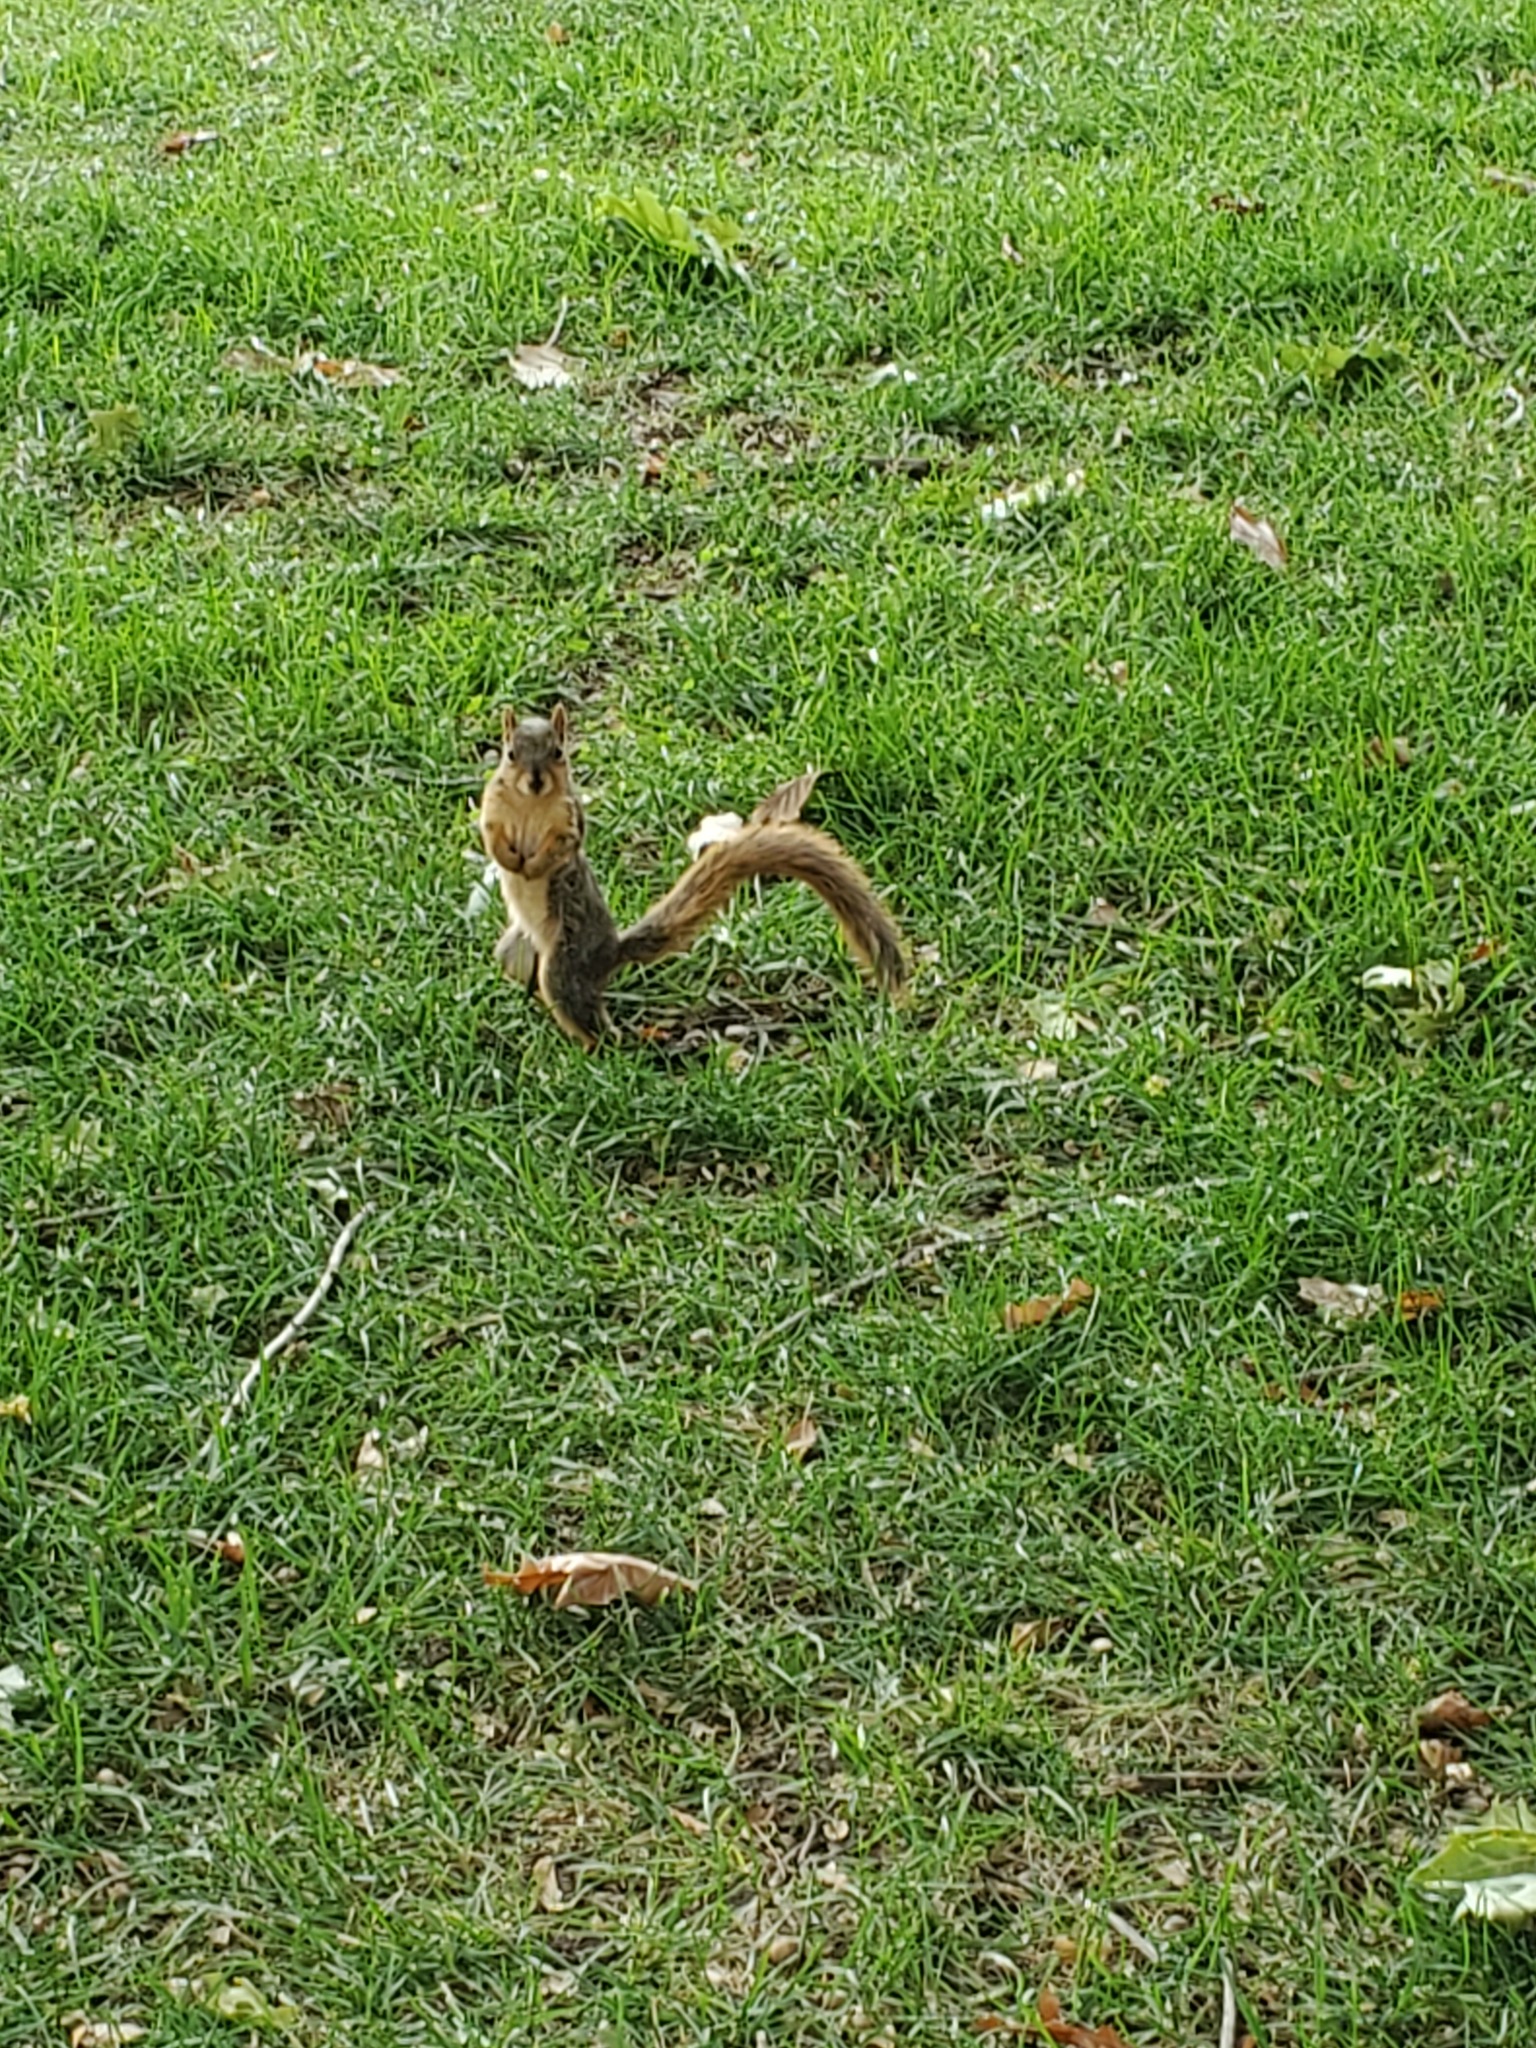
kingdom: Animalia
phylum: Chordata
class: Mammalia
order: Rodentia
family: Sciuridae
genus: Sciurus
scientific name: Sciurus niger
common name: Fox squirrel
